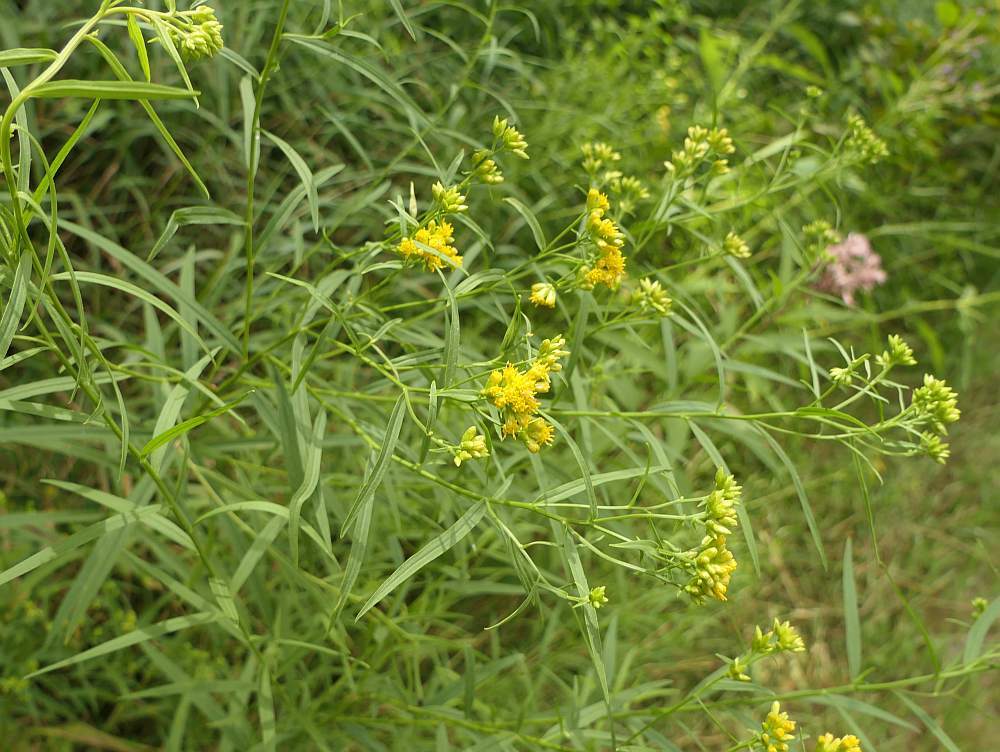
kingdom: Plantae
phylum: Tracheophyta
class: Magnoliopsida
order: Asterales
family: Asteraceae
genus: Euthamia
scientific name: Euthamia graminifolia
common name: Common goldentop
